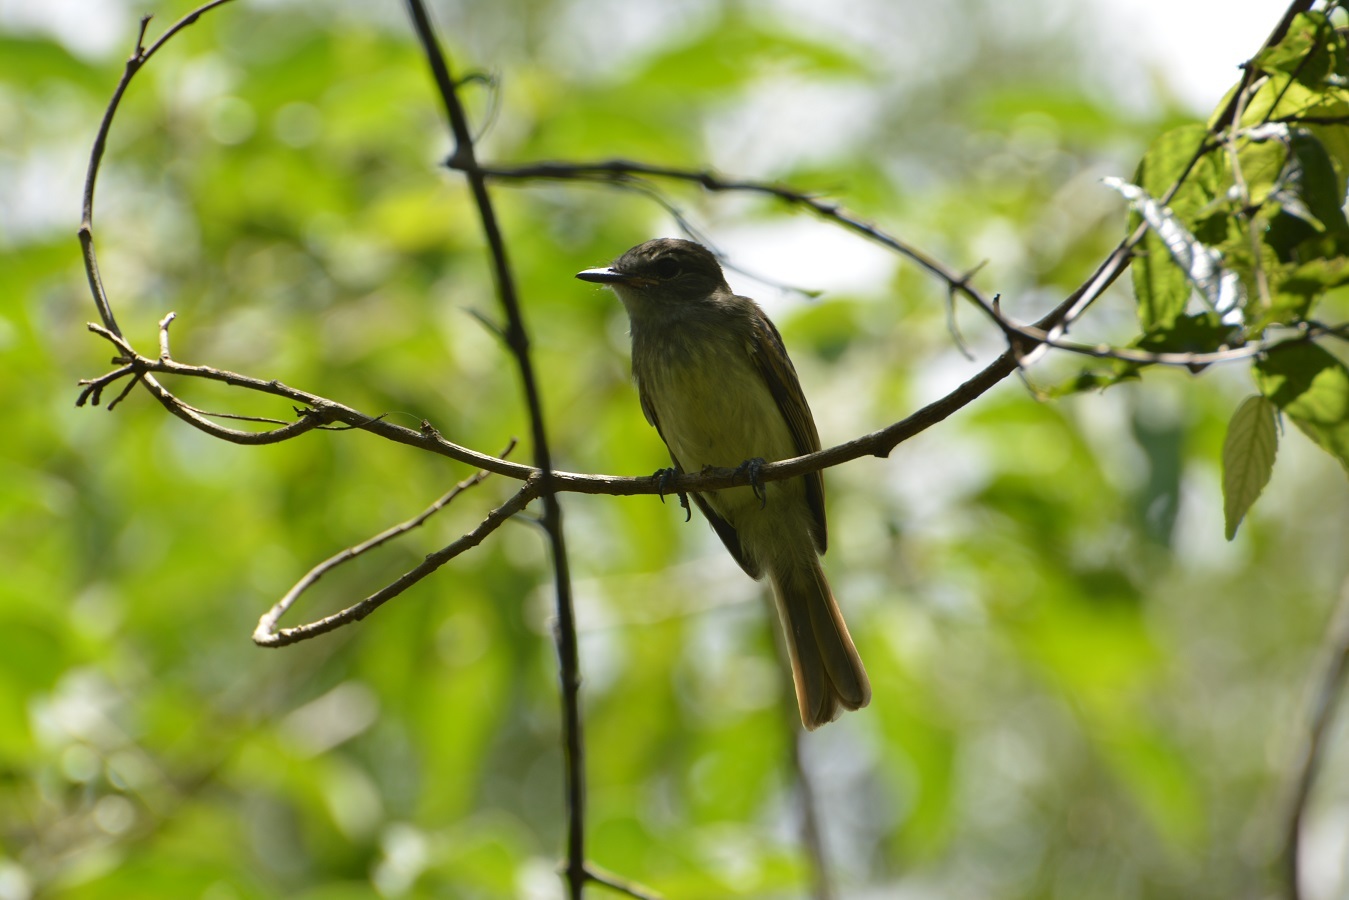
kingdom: Animalia
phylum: Chordata
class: Aves
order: Passeriformes
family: Tyrannidae
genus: Deltarhynchus
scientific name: Deltarhynchus flammulatus
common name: Flammulated flycatcher
